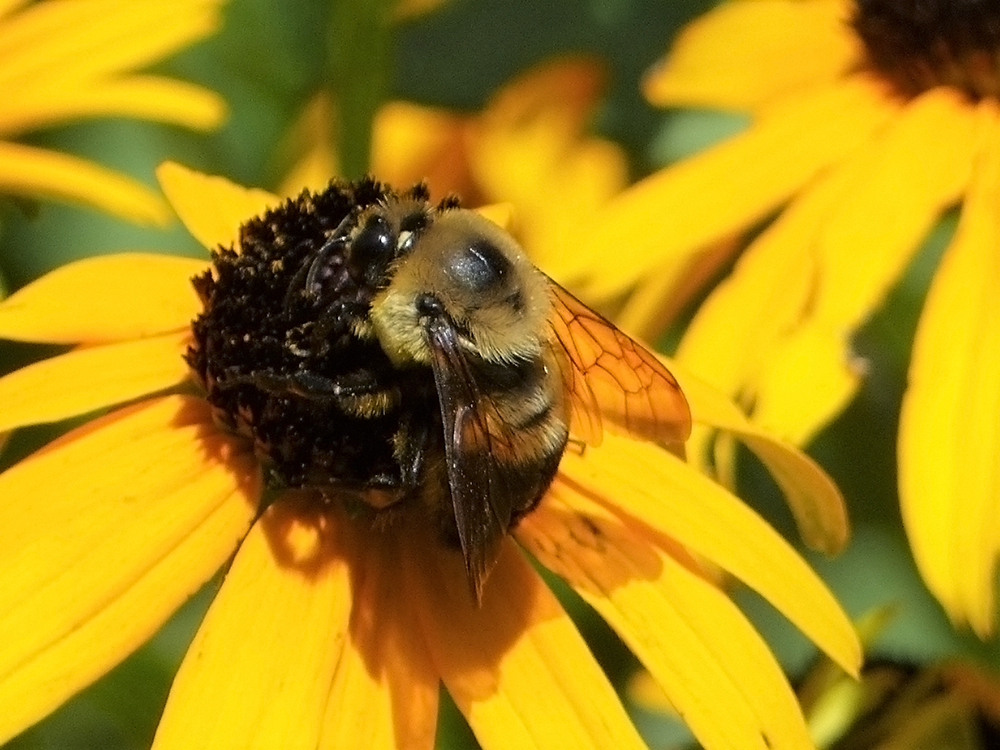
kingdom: Animalia
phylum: Arthropoda
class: Insecta
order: Hymenoptera
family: Apidae
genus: Bombus
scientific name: Bombus griseocollis
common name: Brown-belted bumble bee
